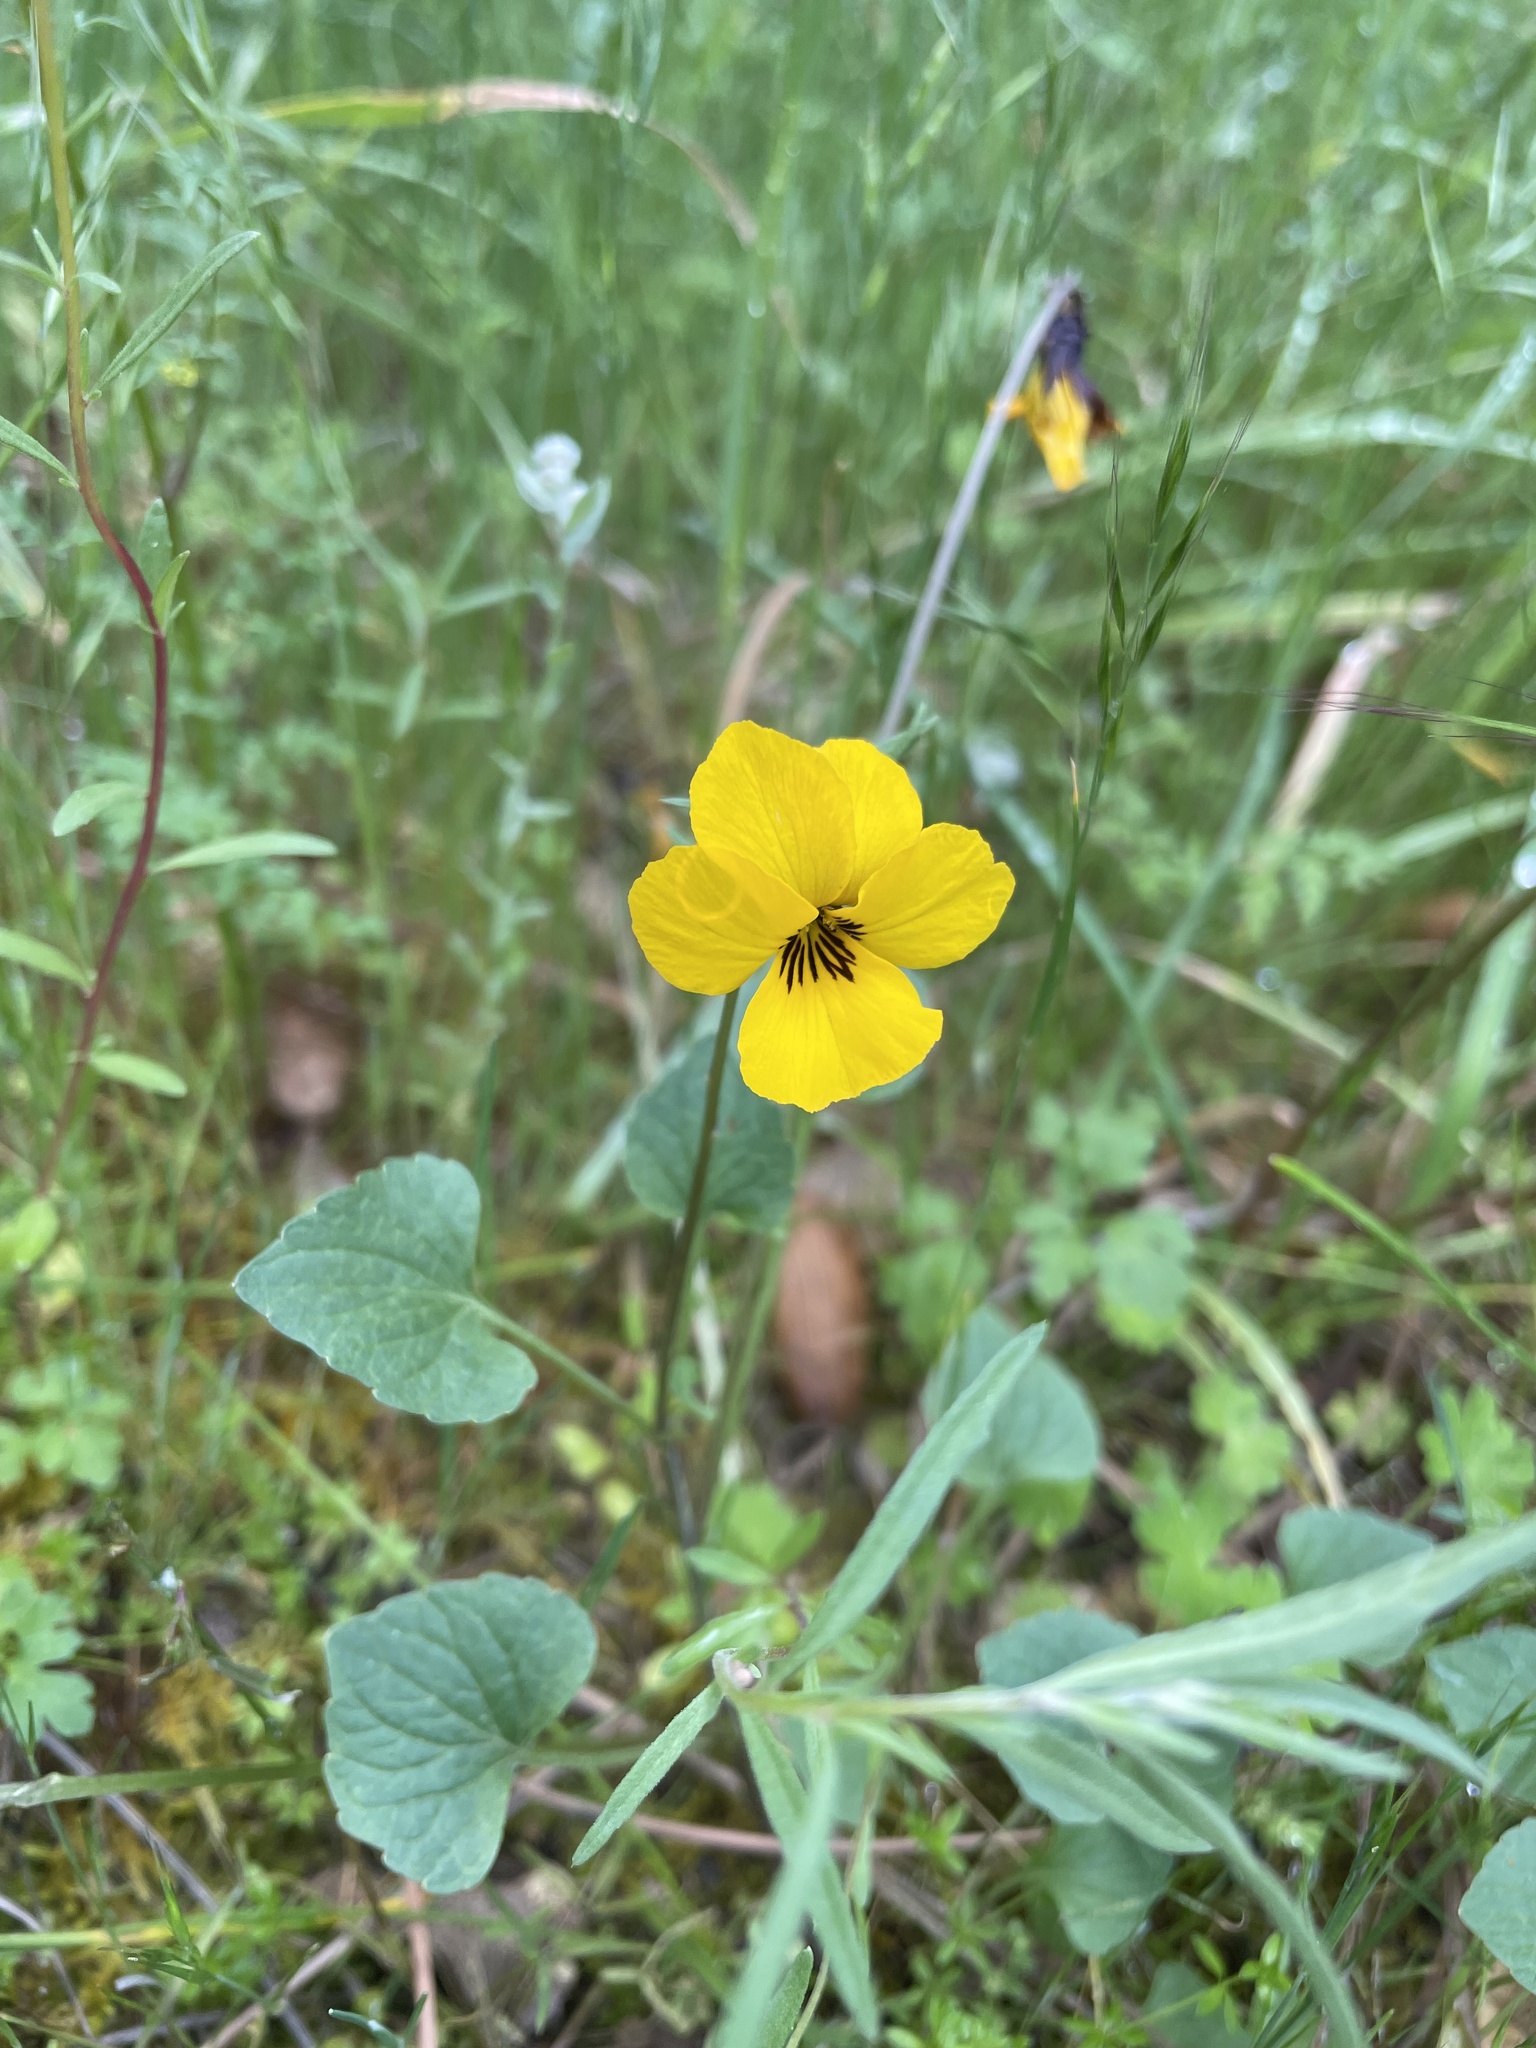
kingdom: Plantae
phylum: Tracheophyta
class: Magnoliopsida
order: Malpighiales
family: Violaceae
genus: Viola
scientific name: Viola pedunculata
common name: California golden violet
